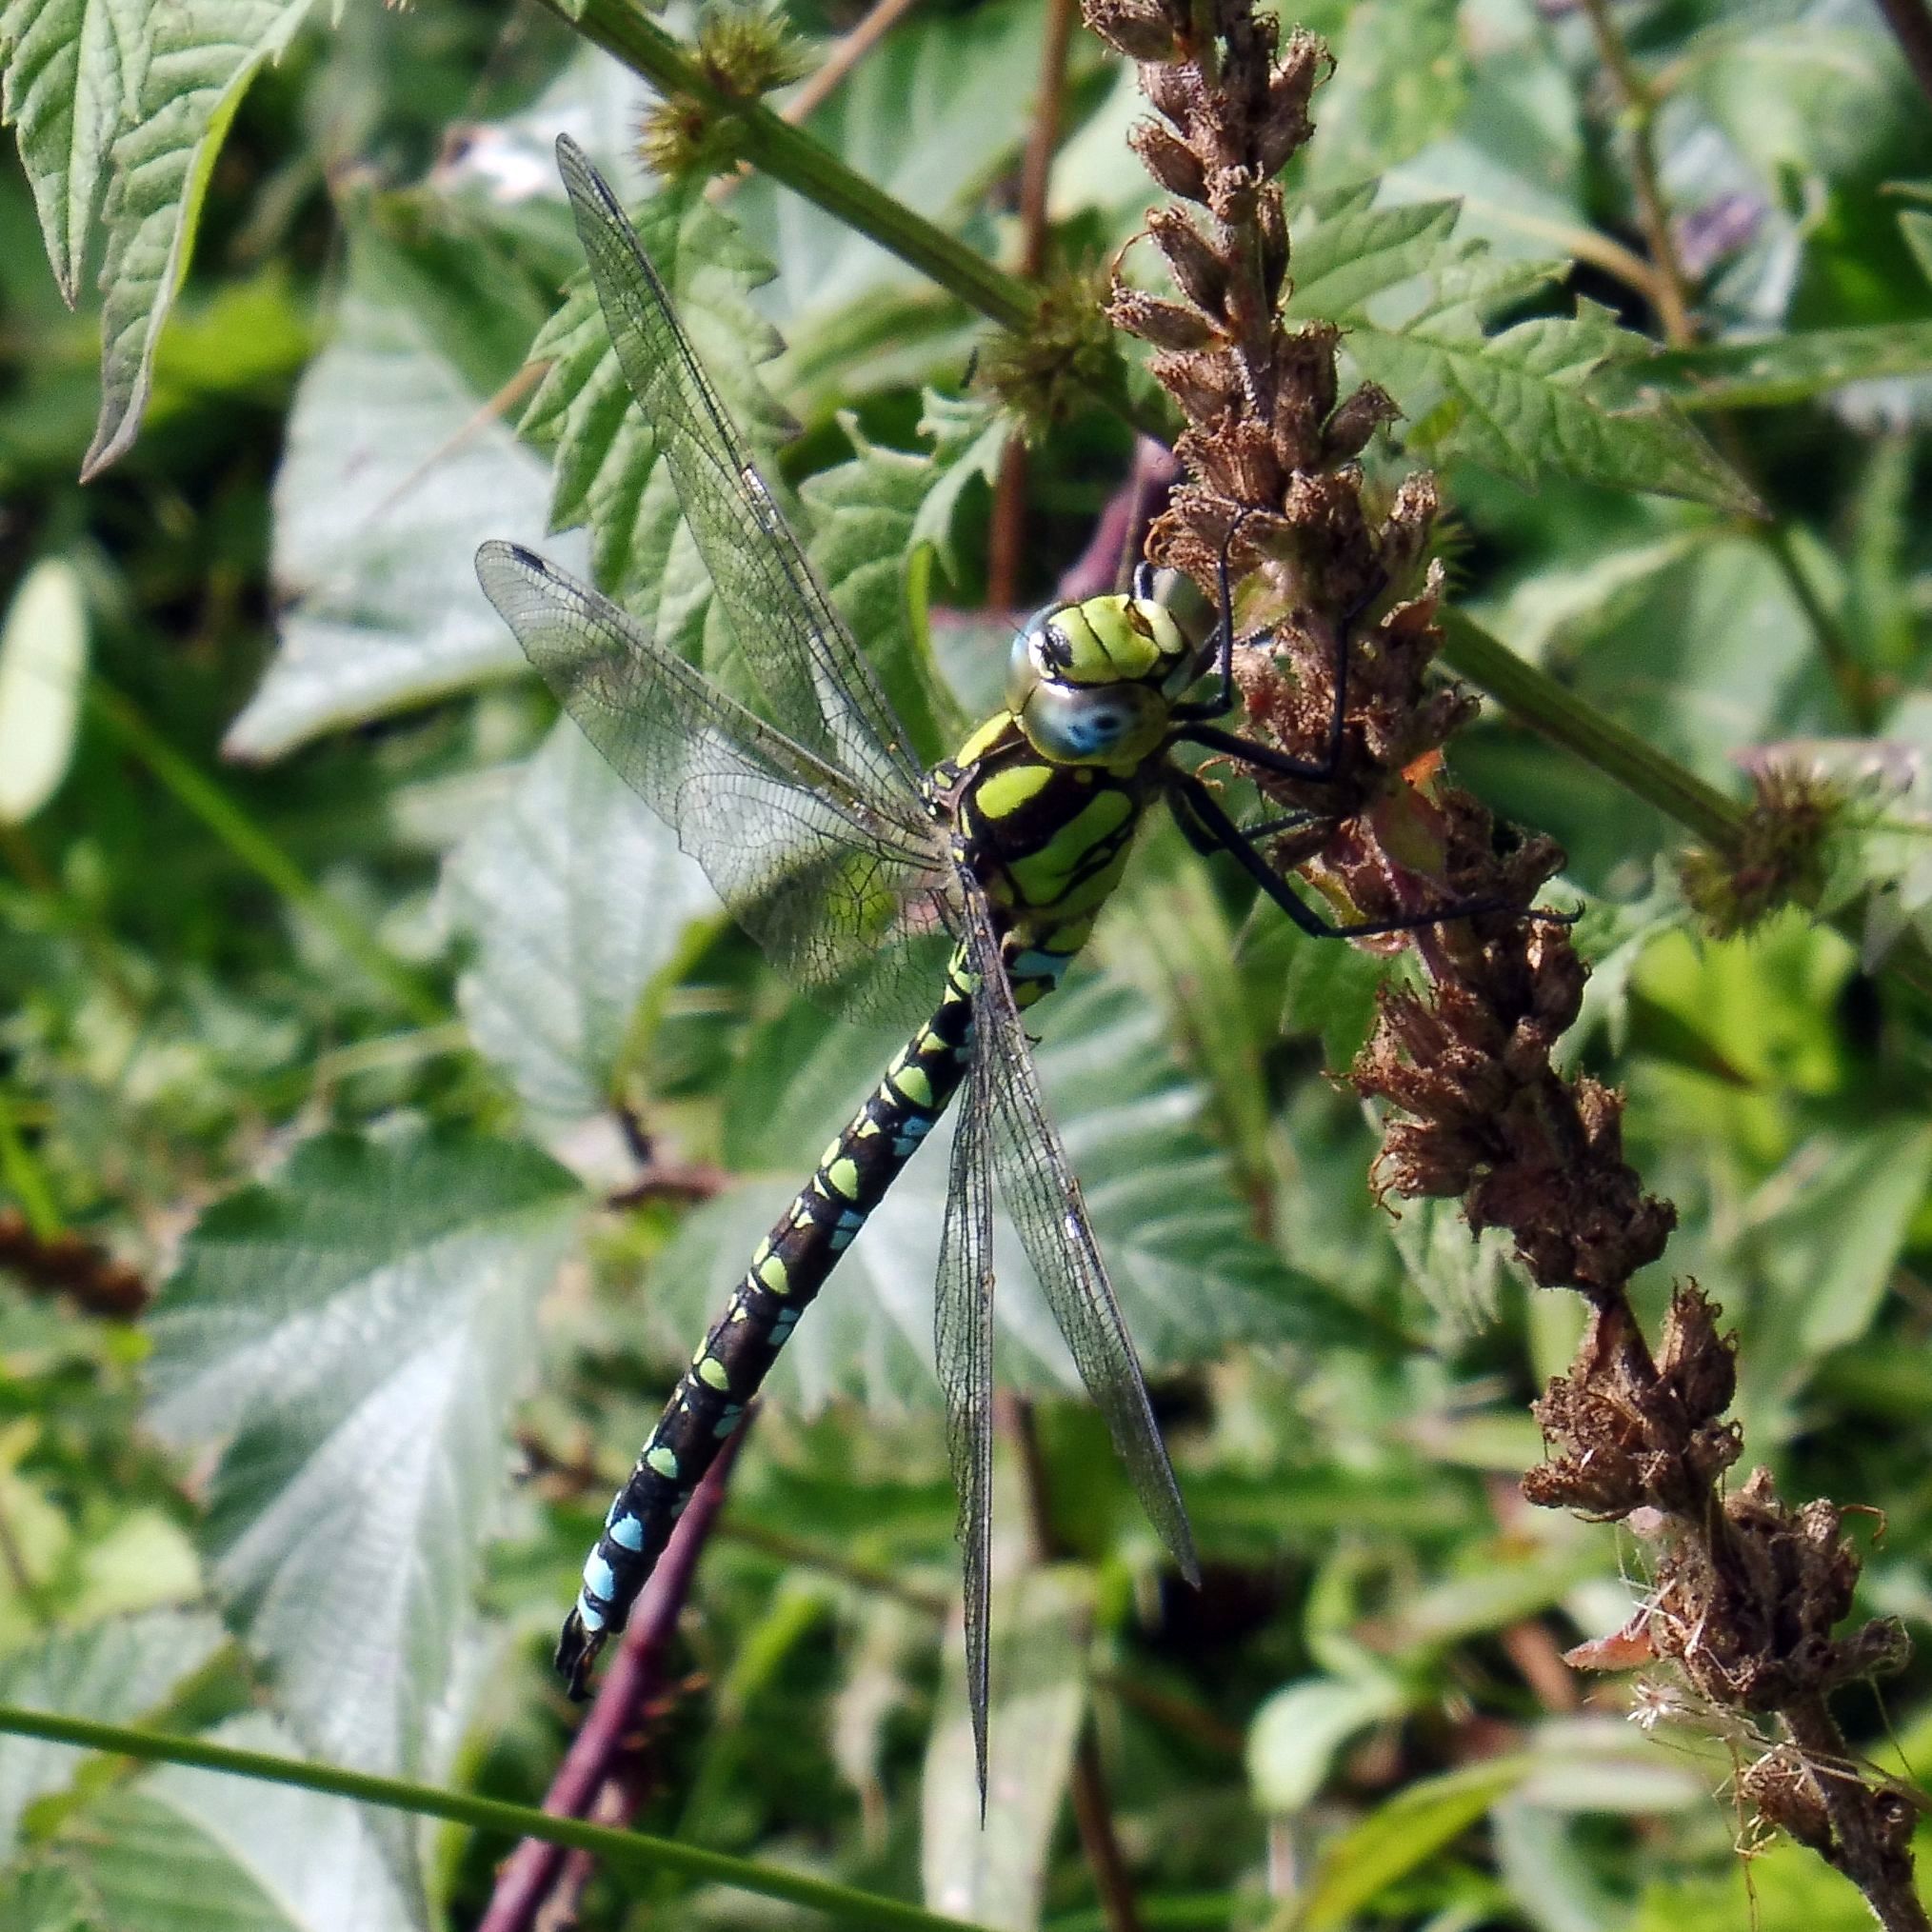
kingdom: Animalia
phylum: Arthropoda
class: Insecta
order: Odonata
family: Aeshnidae
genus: Aeshna
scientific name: Aeshna cyanea
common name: Southern hawker
